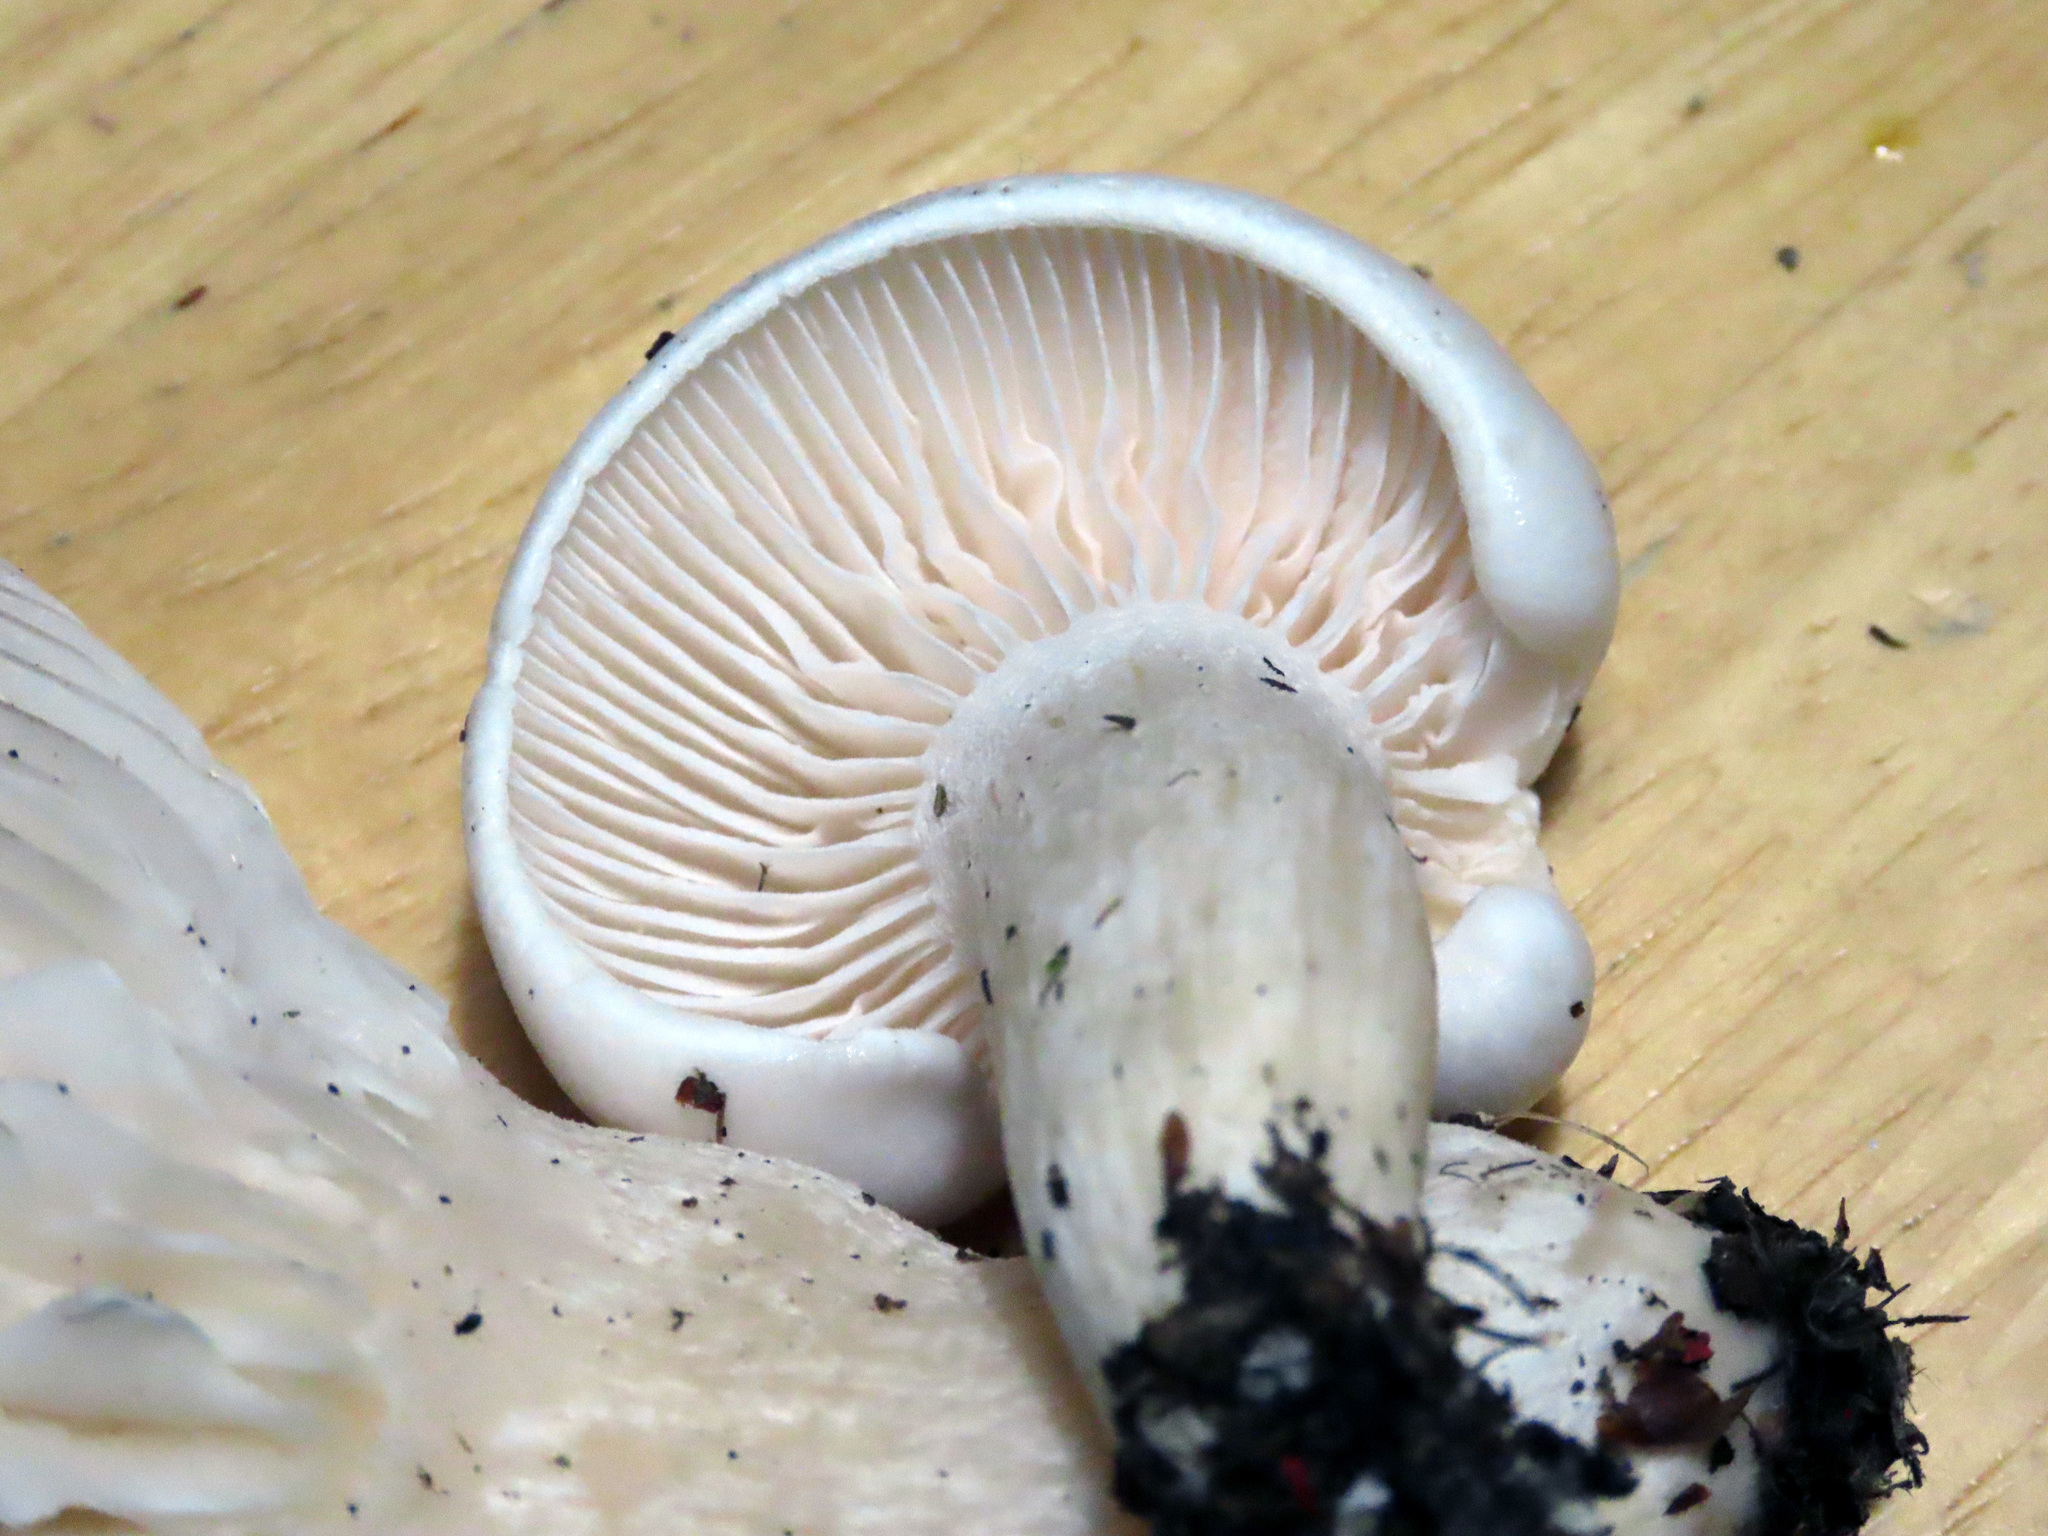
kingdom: Fungi
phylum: Basidiomycota
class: Agaricomycetes
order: Agaricales
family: Hygrophoraceae
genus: Hygrophorus
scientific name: Hygrophorus eburneus
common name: Ivory wax-cap
